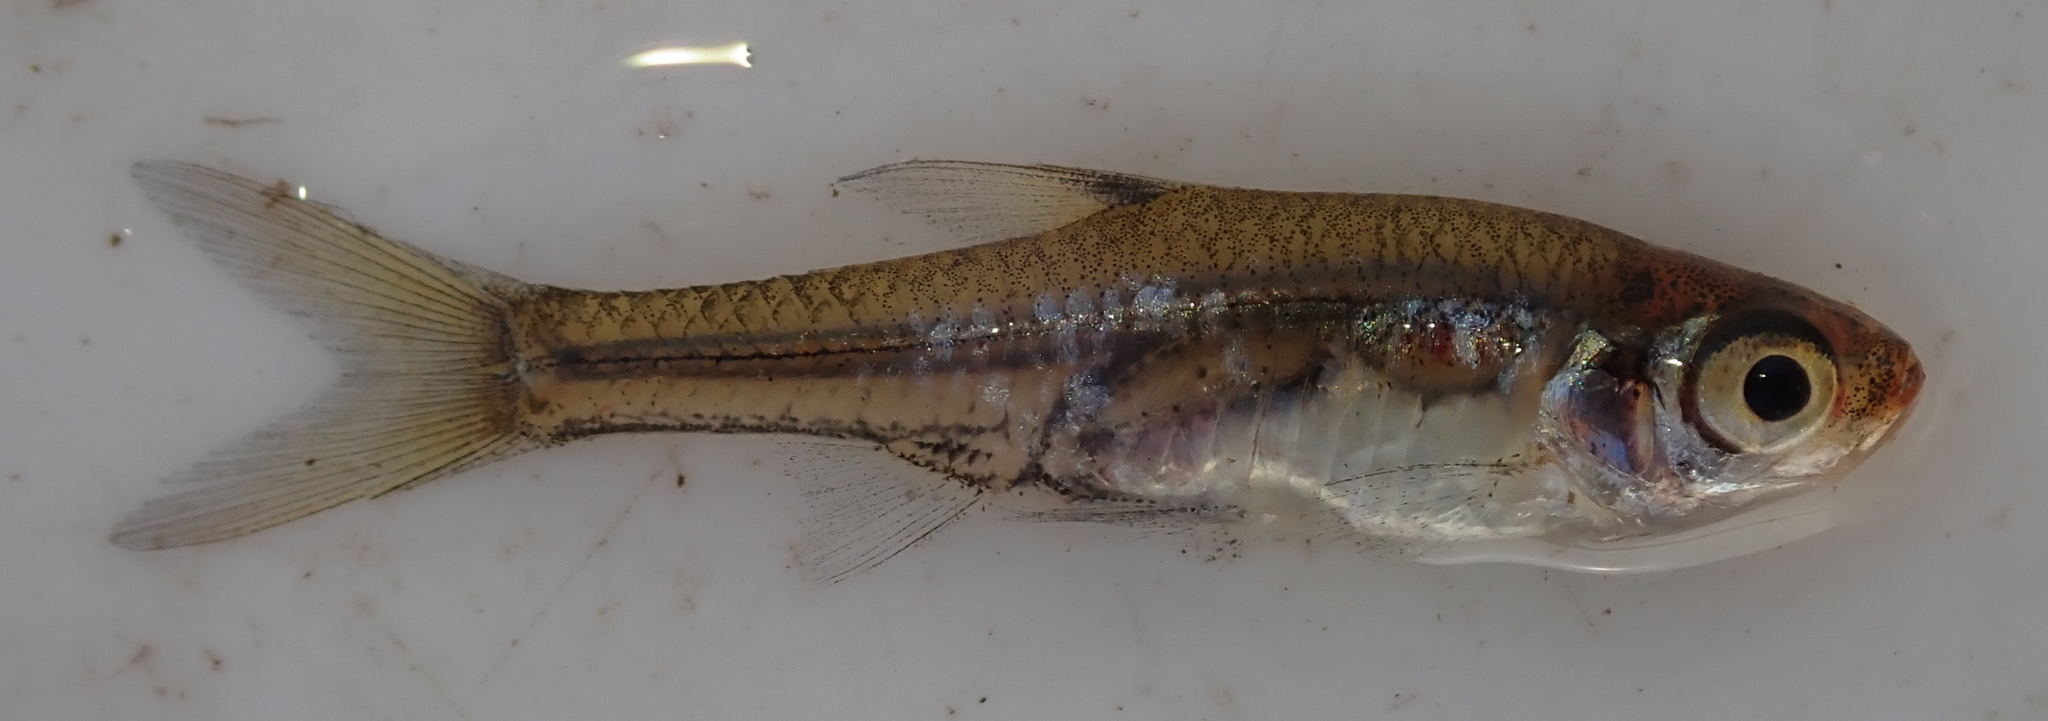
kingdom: Animalia
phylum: Chordata
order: Cypriniformes
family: Cyprinidae
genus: Coptostomabarbus
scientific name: Coptostomabarbus wittei
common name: Upjaw barb
